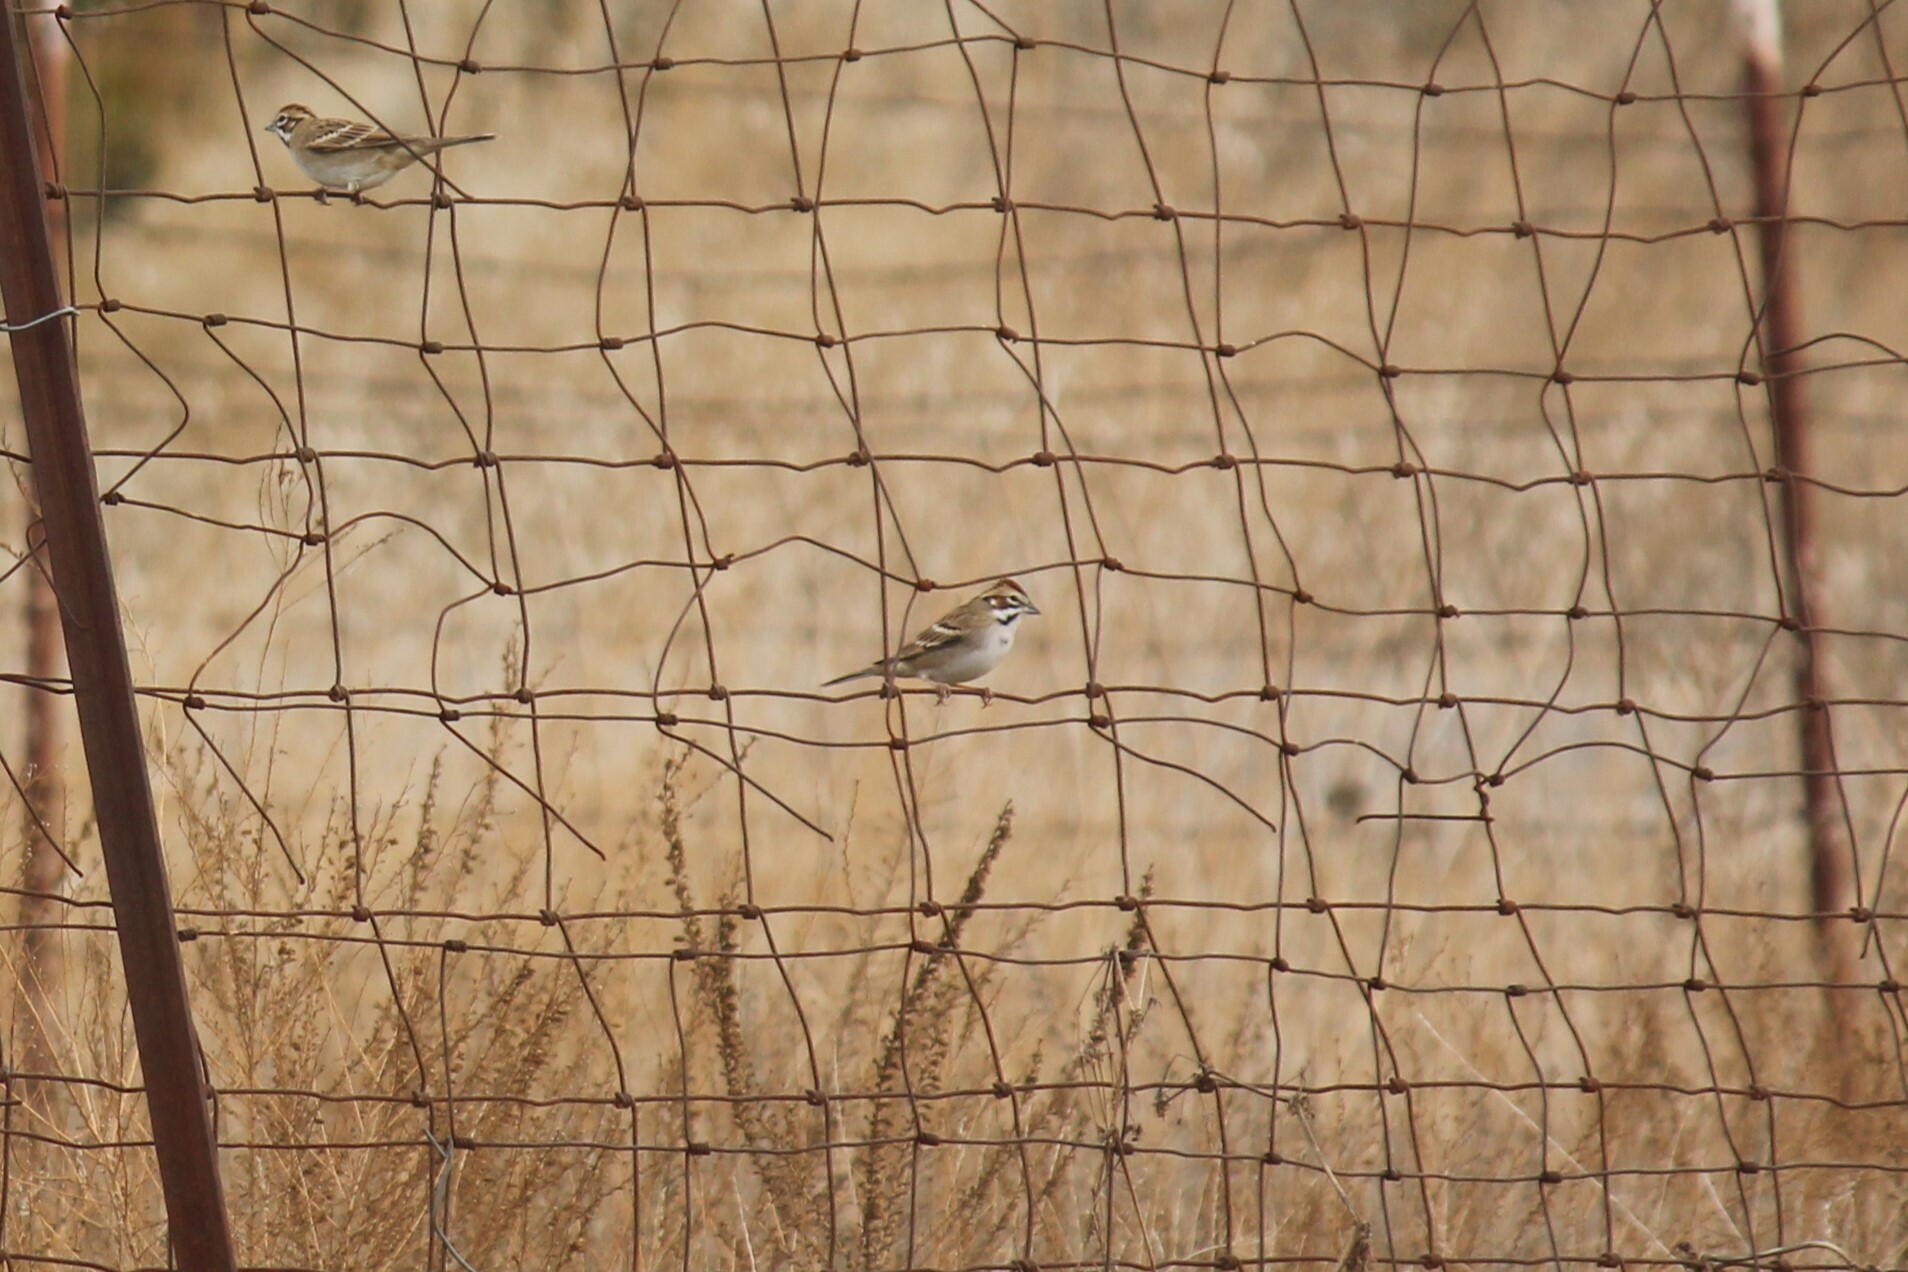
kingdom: Animalia
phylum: Chordata
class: Aves
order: Passeriformes
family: Passerellidae
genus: Chondestes
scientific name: Chondestes grammacus
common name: Lark sparrow
